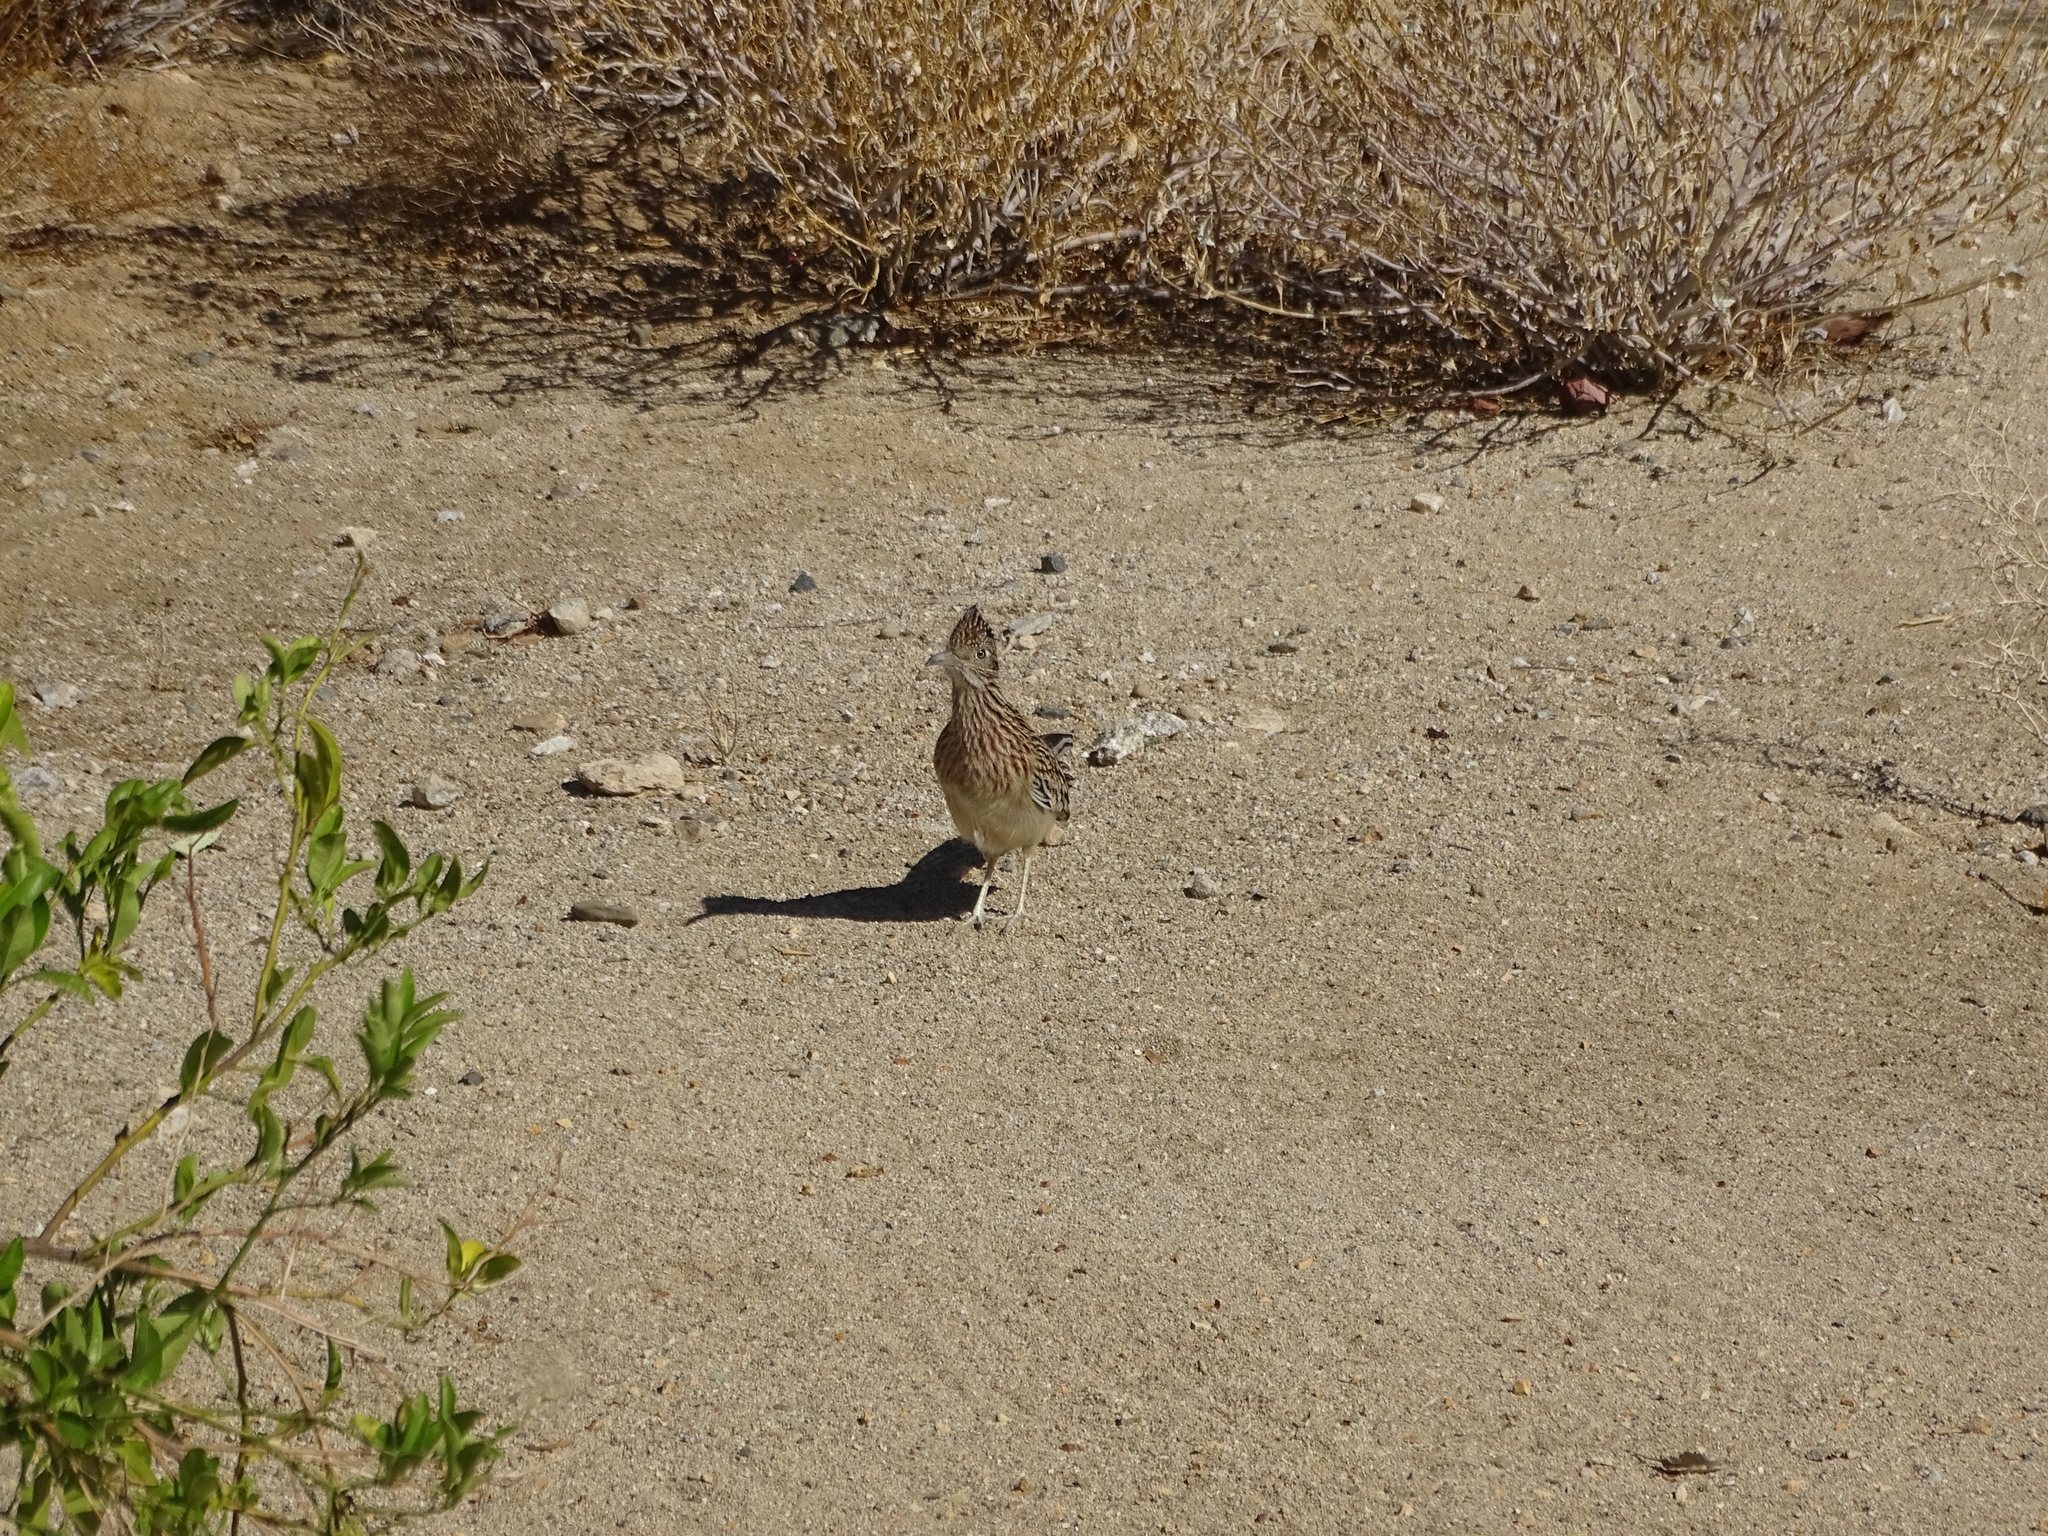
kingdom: Animalia
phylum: Chordata
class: Aves
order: Cuculiformes
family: Cuculidae
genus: Geococcyx
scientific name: Geococcyx californianus
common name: Greater roadrunner
